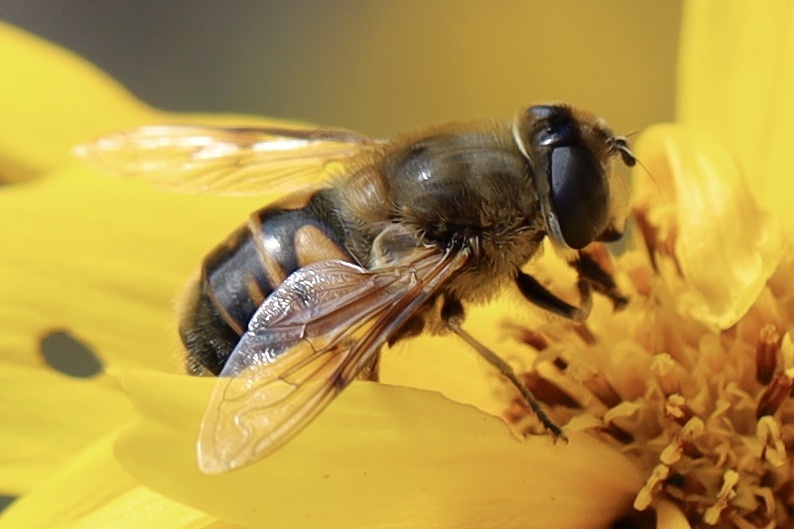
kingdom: Animalia
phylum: Arthropoda
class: Insecta
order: Diptera
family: Syrphidae
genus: Eristalis
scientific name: Eristalis tenax
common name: Drone fly
